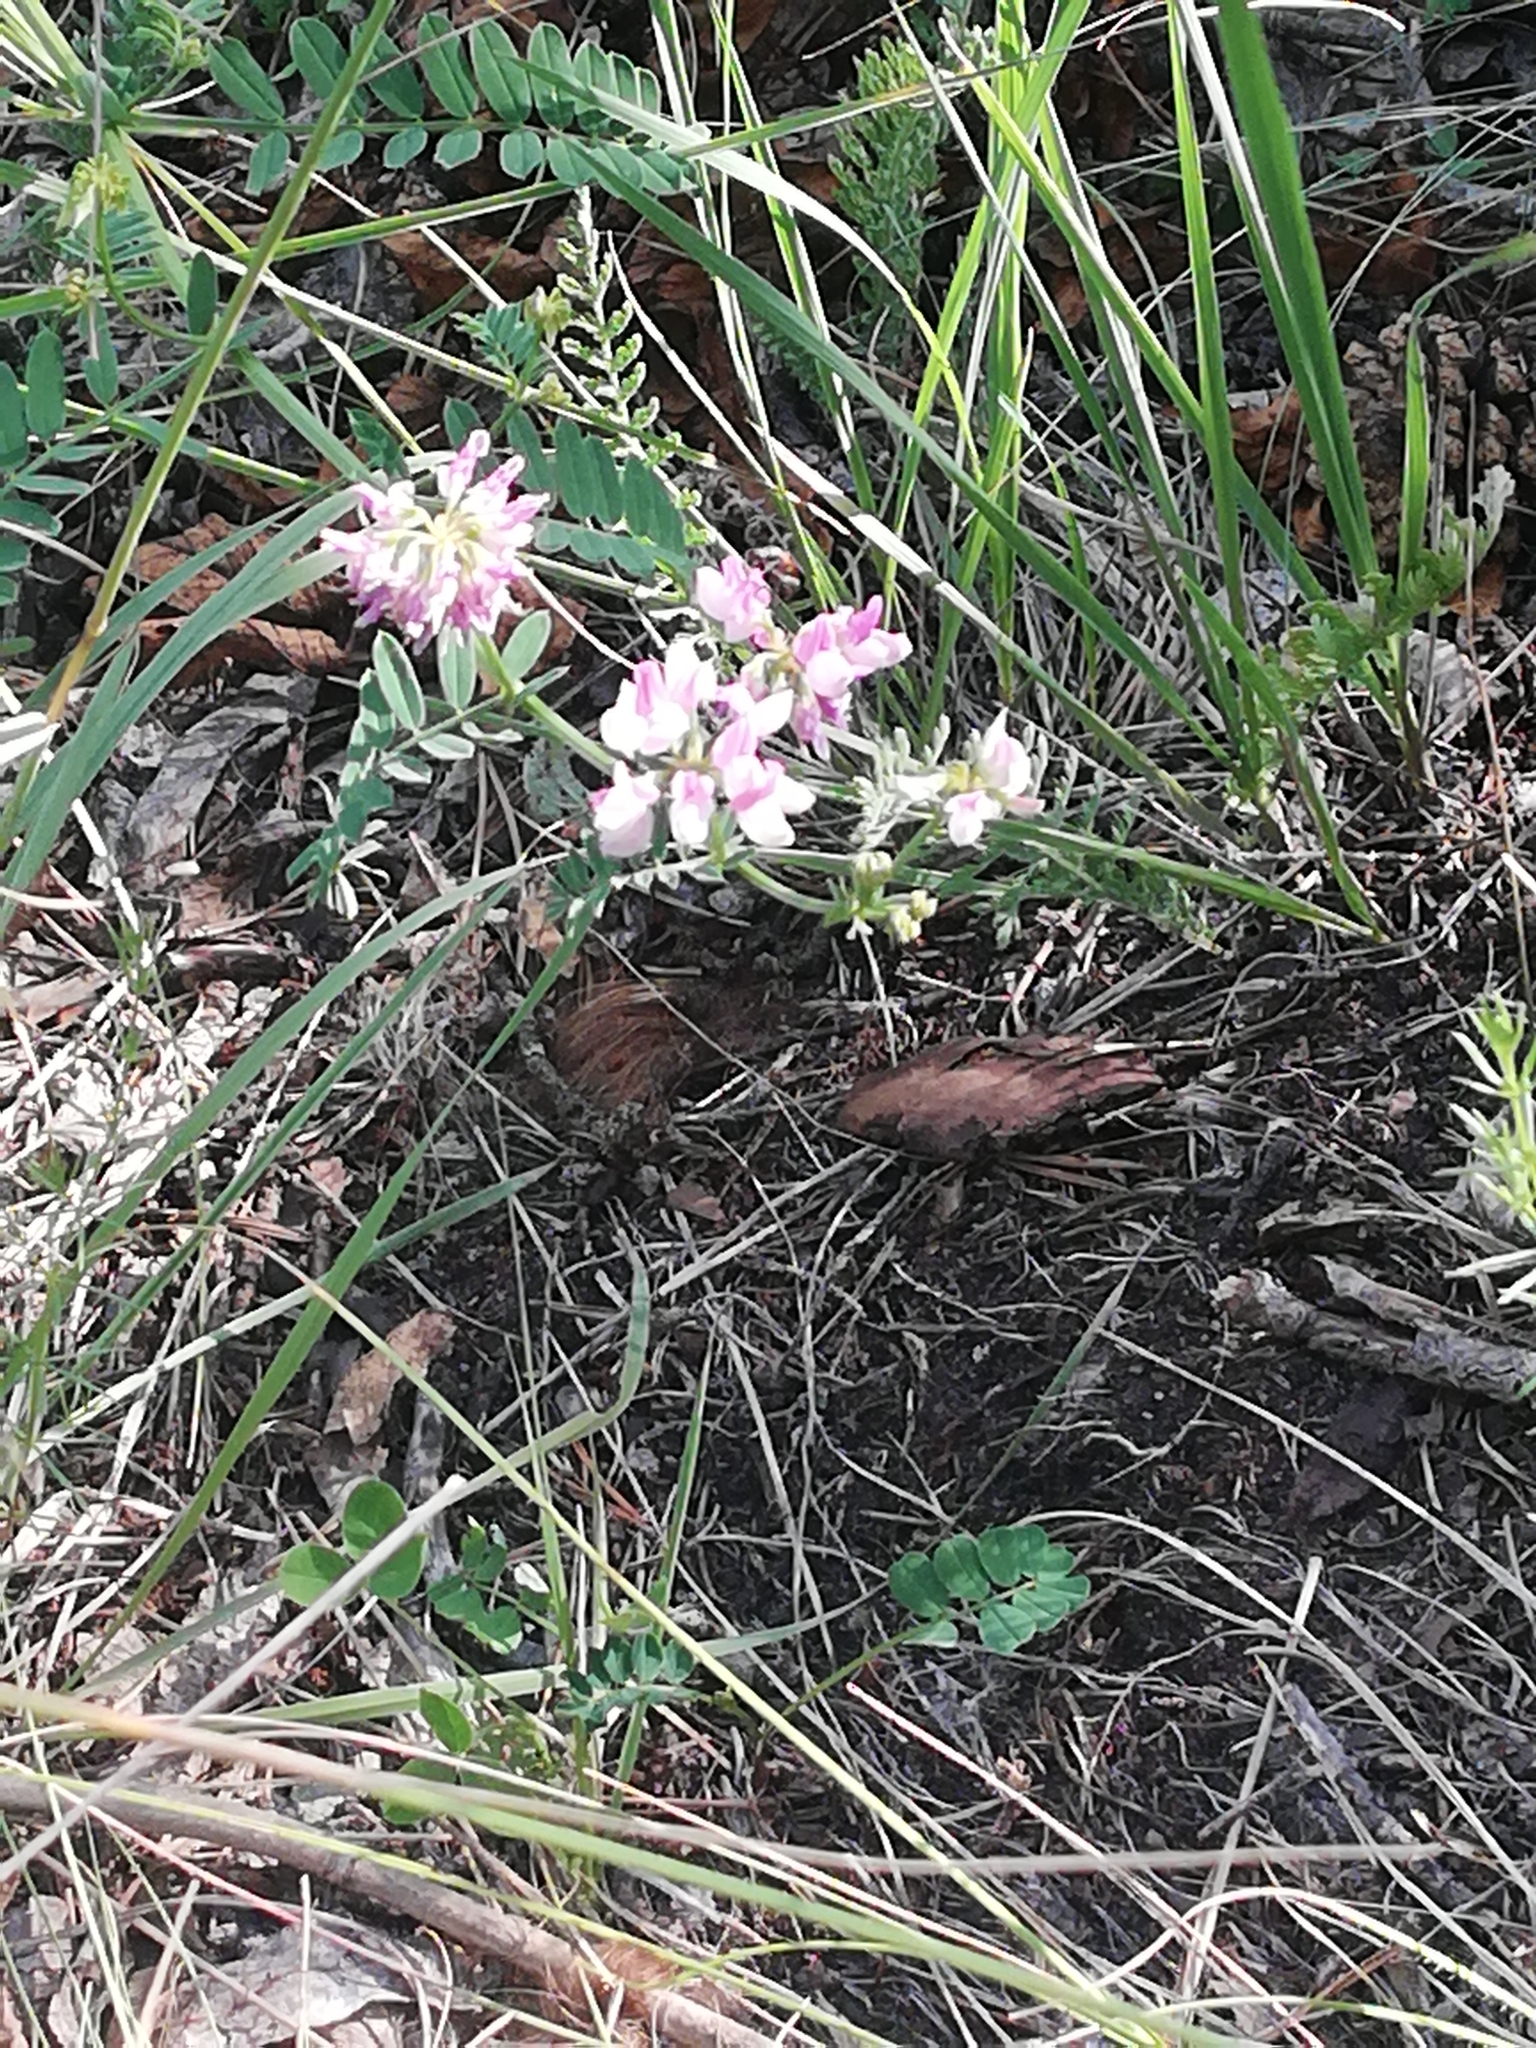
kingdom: Plantae
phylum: Tracheophyta
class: Magnoliopsida
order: Fabales
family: Fabaceae
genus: Coronilla
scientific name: Coronilla varia
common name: Crownvetch
